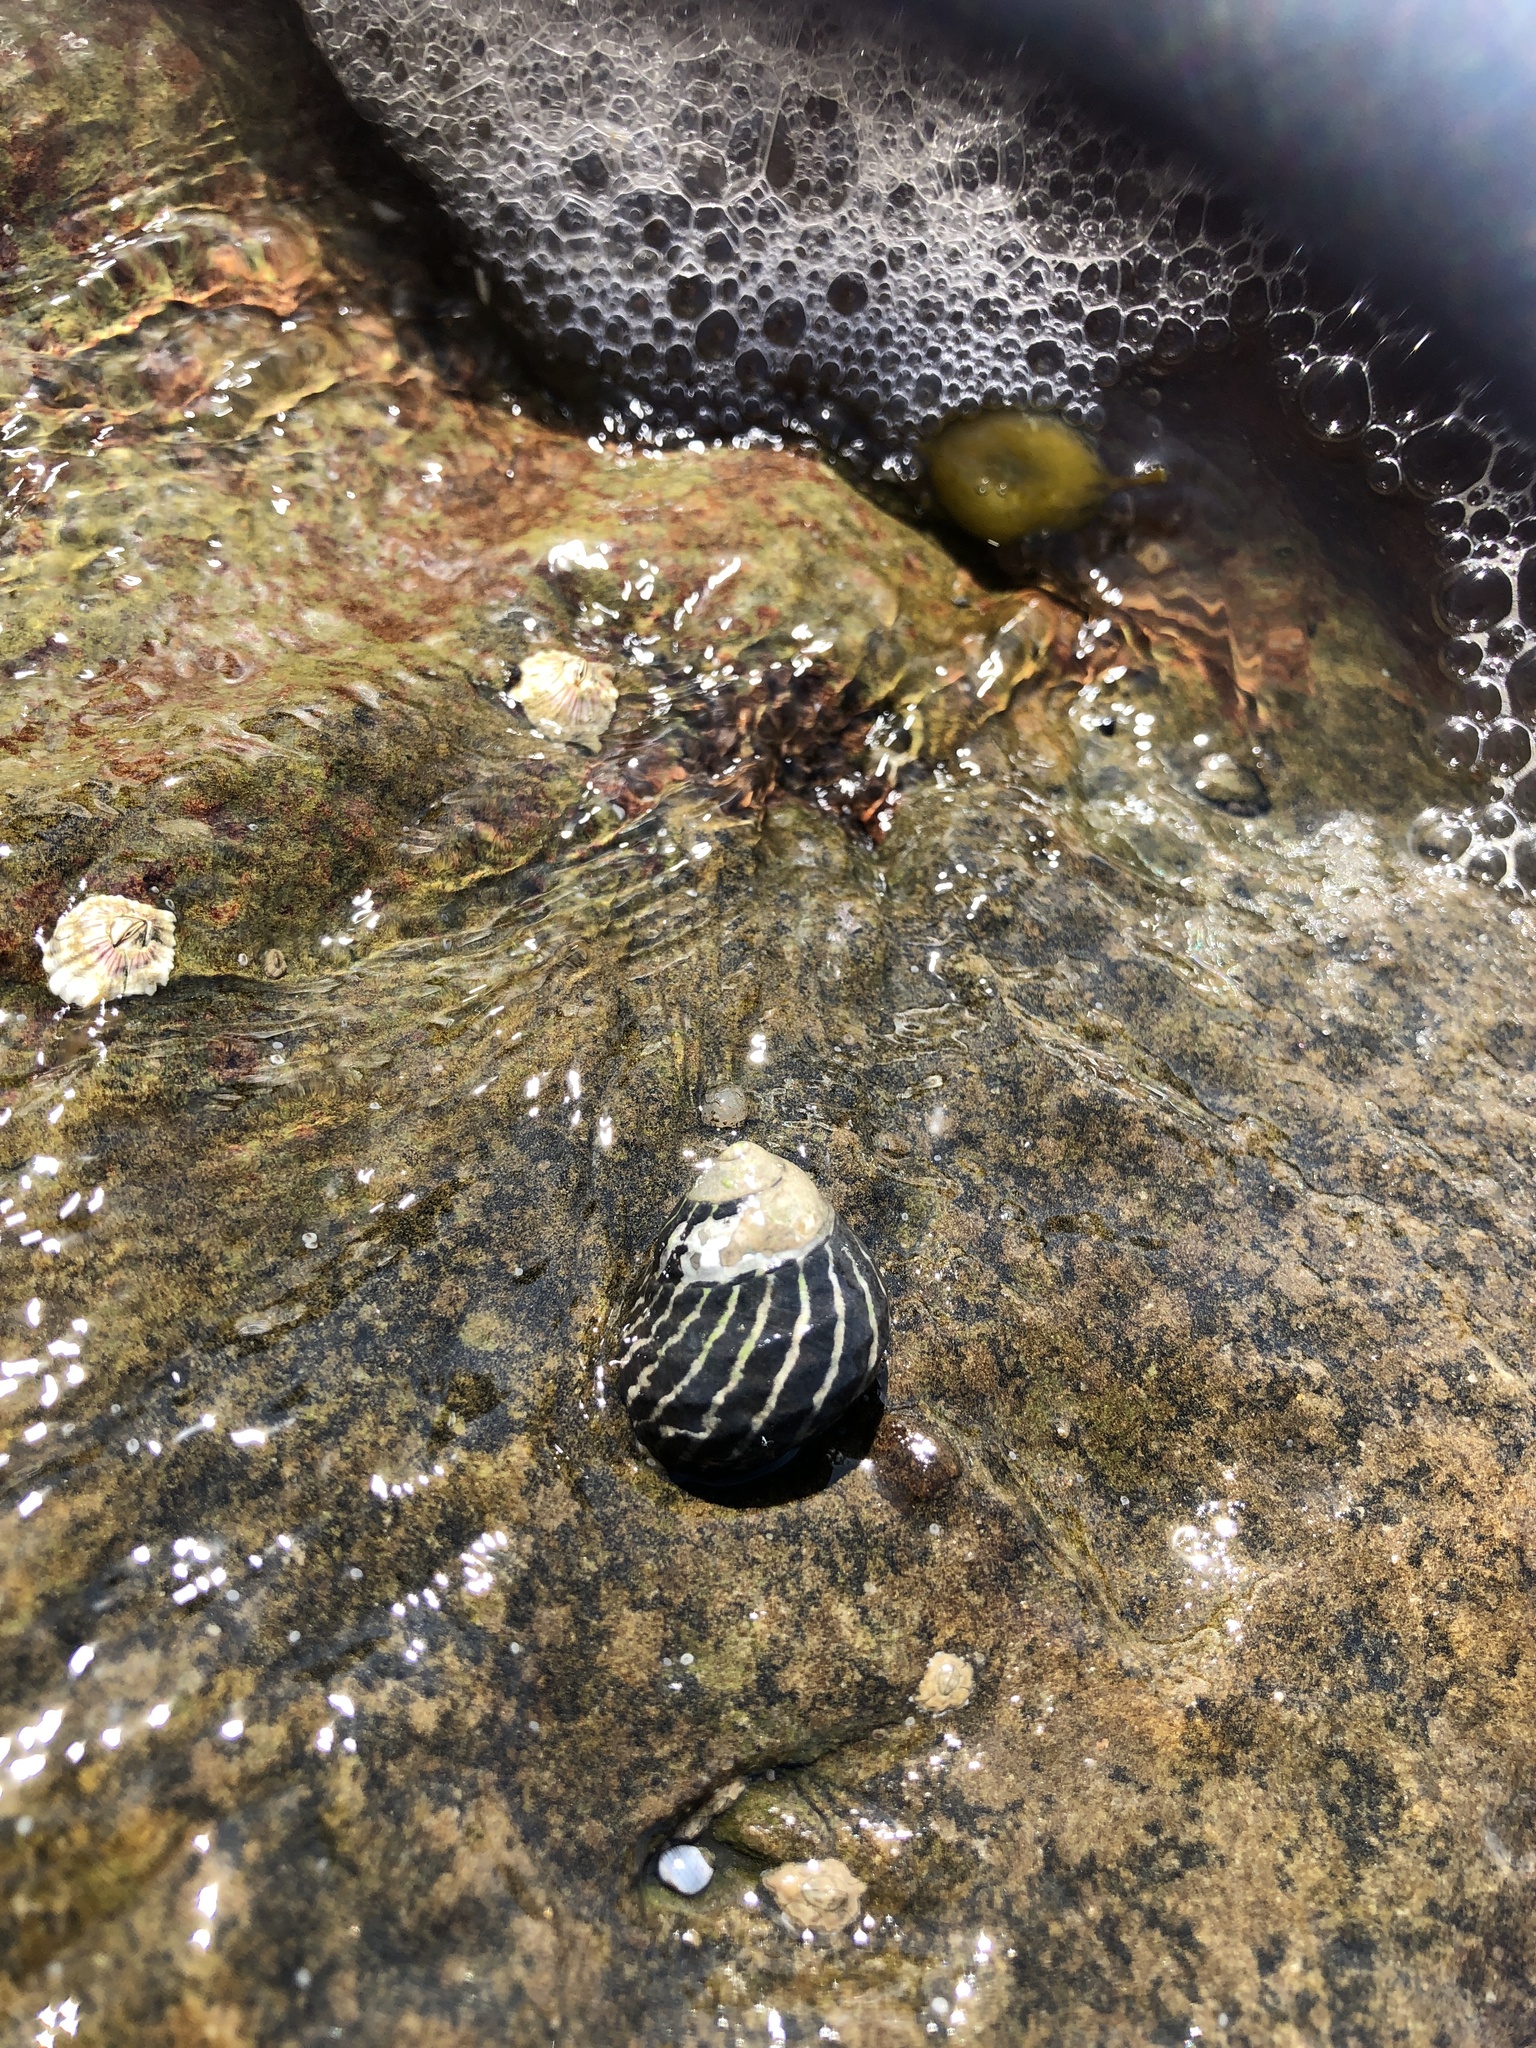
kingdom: Animalia
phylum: Mollusca
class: Gastropoda
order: Trochida
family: Trochidae
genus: Austrocochlea
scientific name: Austrocochlea porcata
